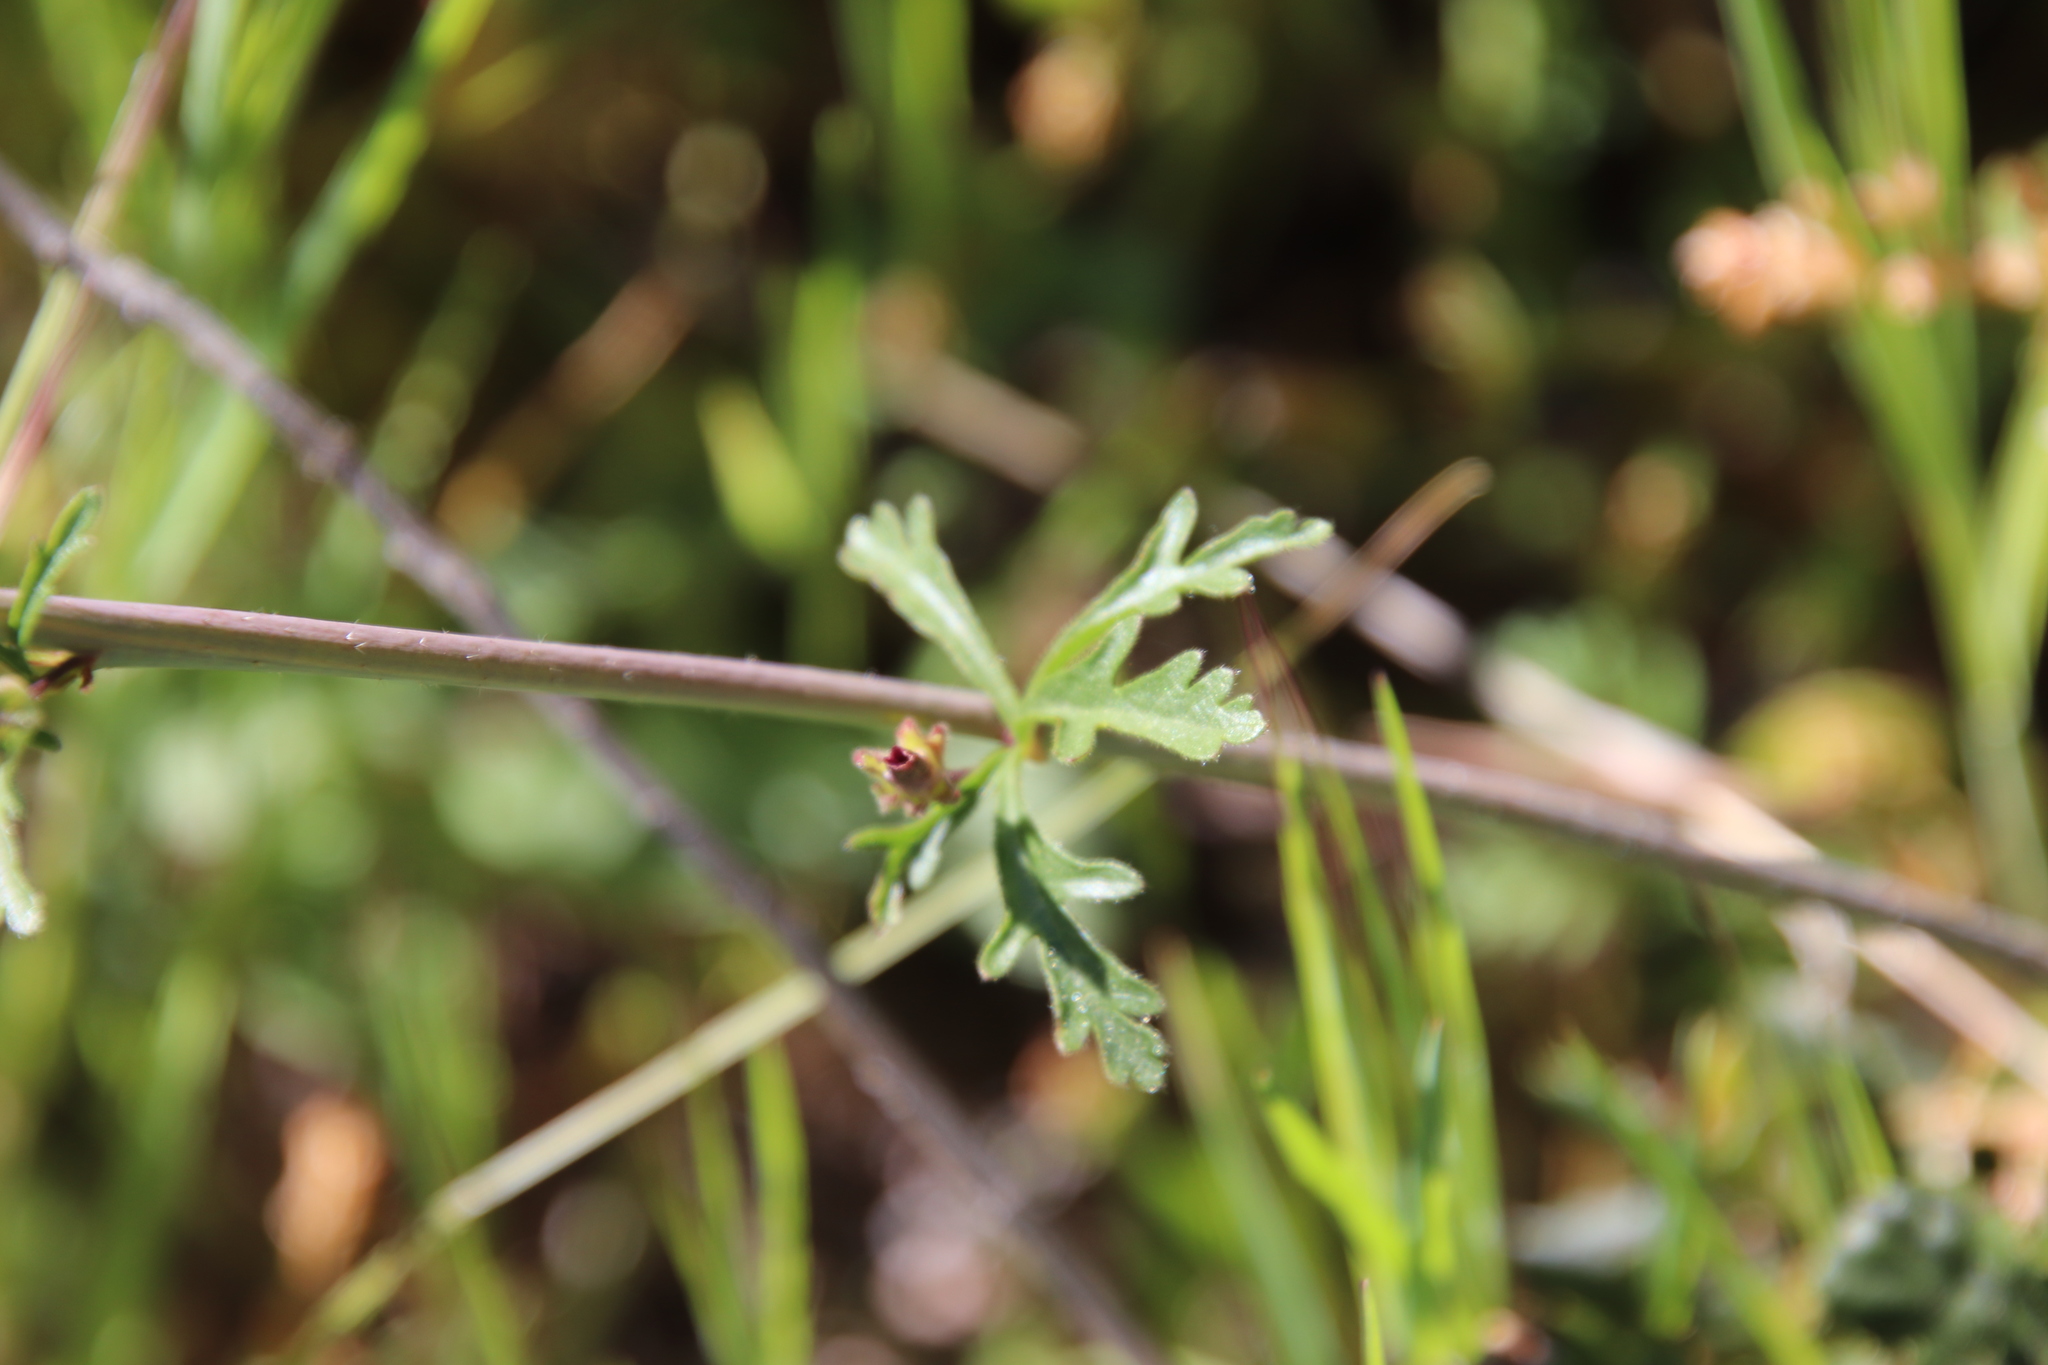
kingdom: Plantae
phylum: Tracheophyta
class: Magnoliopsida
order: Malvales
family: Malvaceae
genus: Sidalcea
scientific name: Sidalcea sparsifolia
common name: Southern checkerbloom
